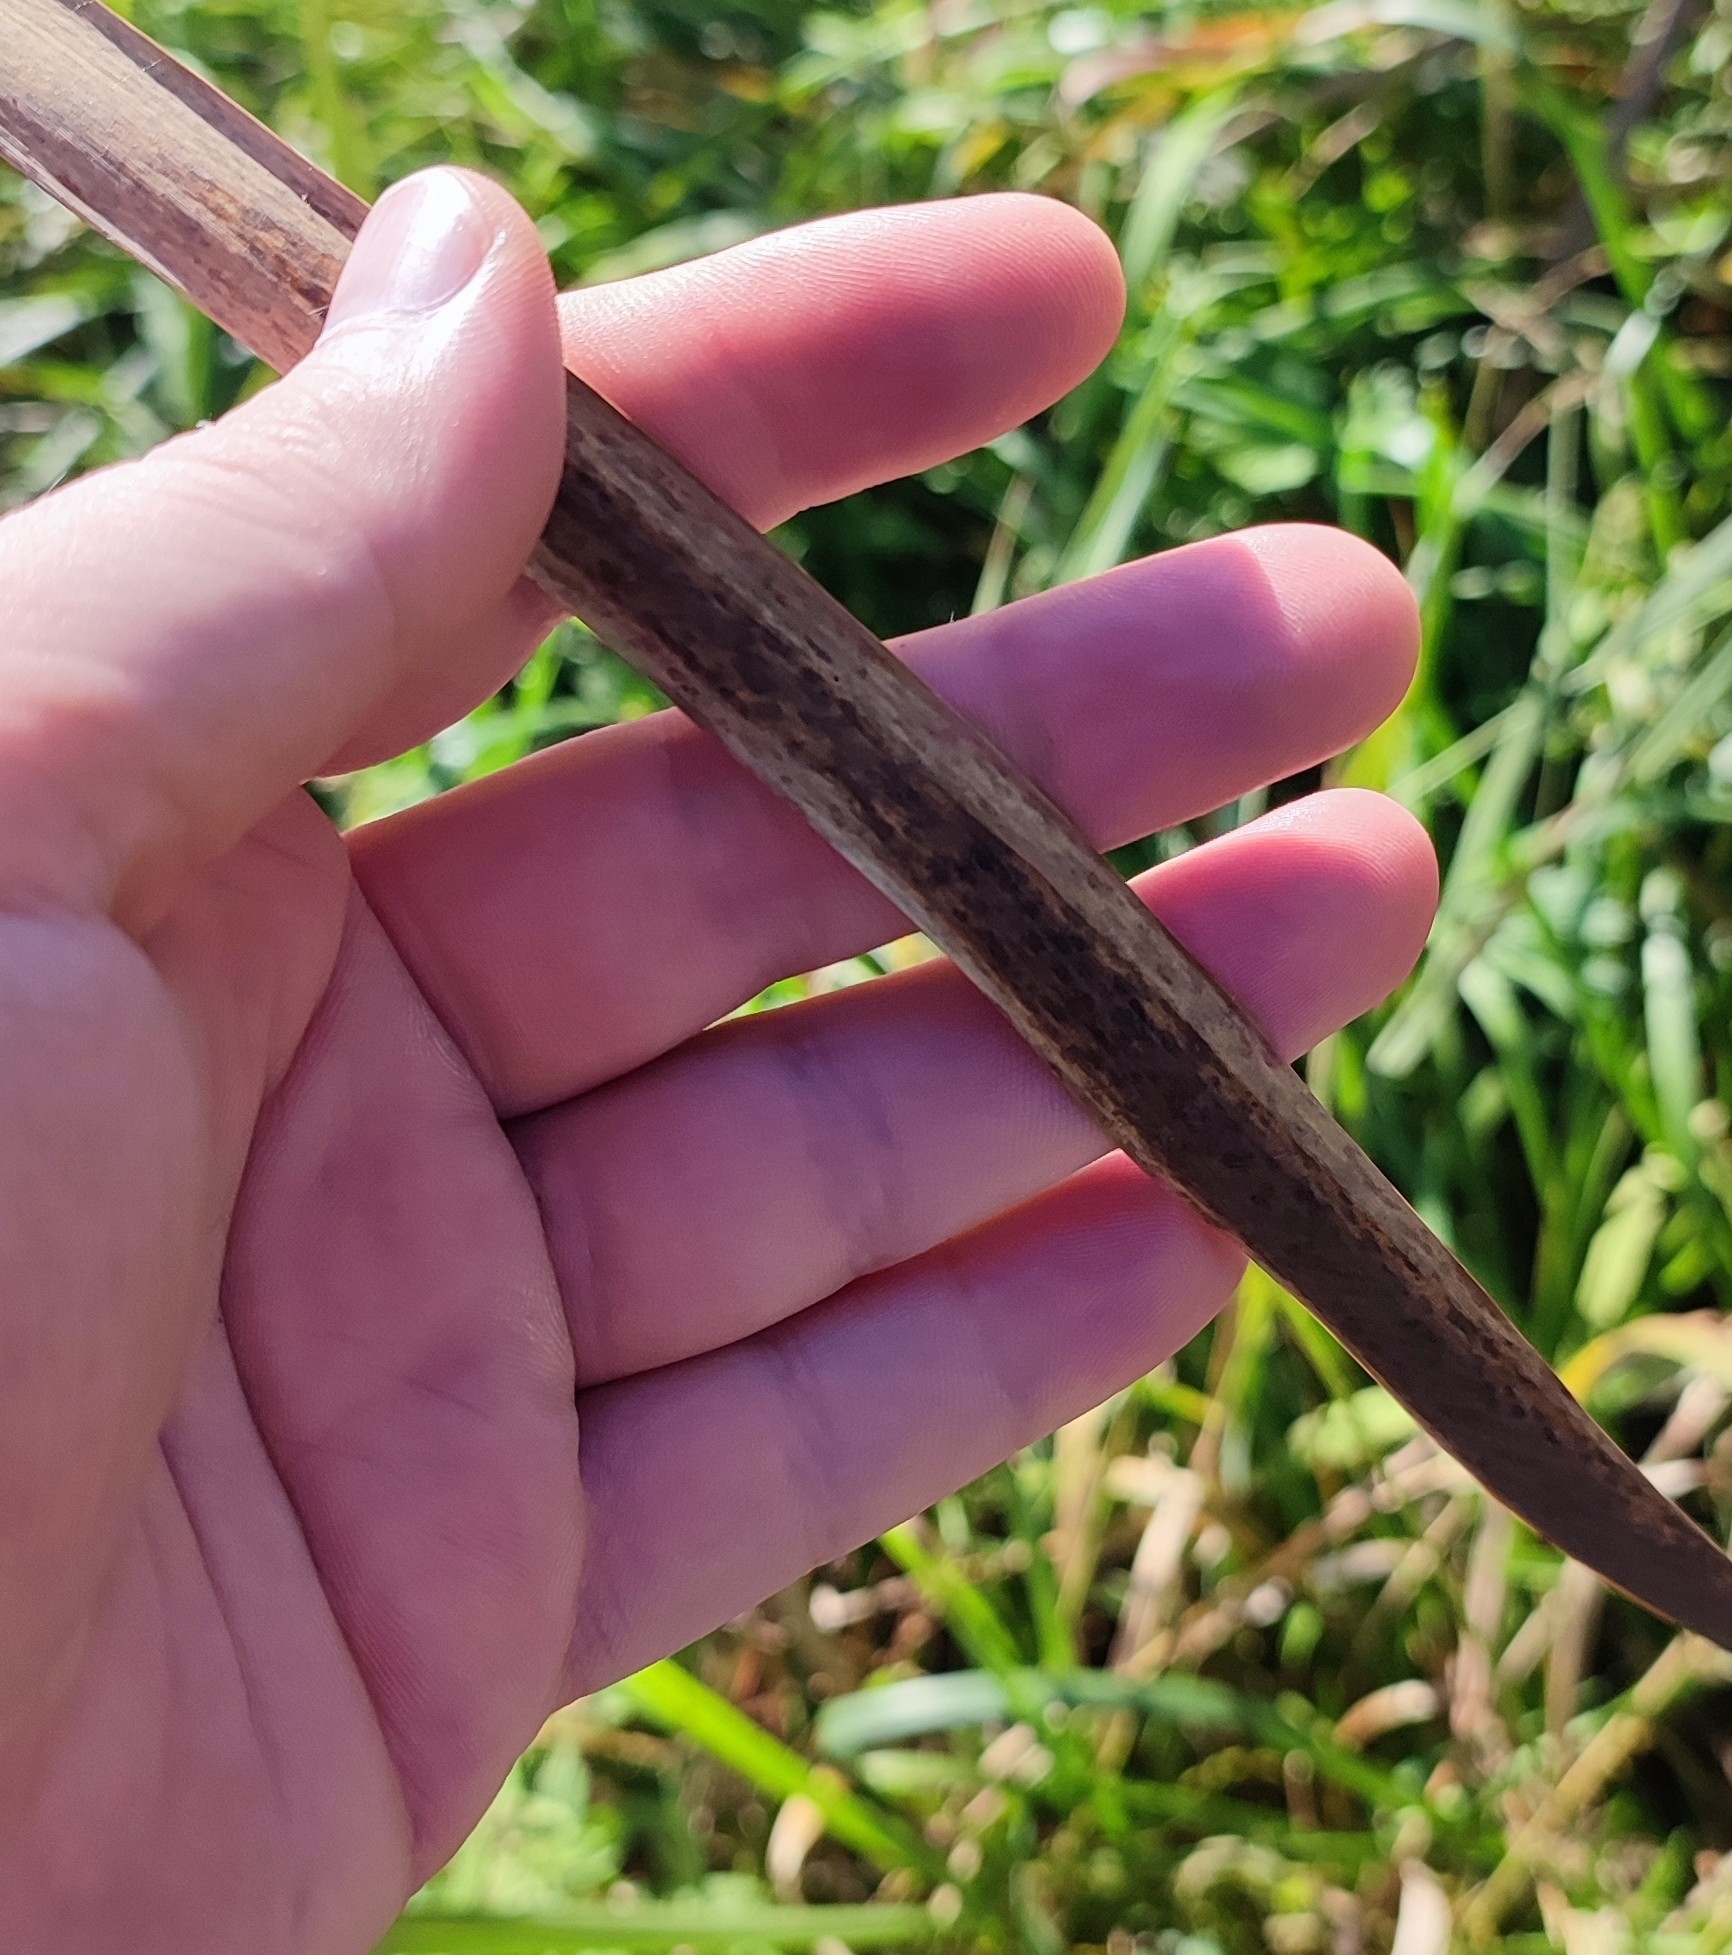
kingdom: Plantae
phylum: Tracheophyta
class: Liliopsida
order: Poales
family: Typhaceae
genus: Typha
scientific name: Typha incana
